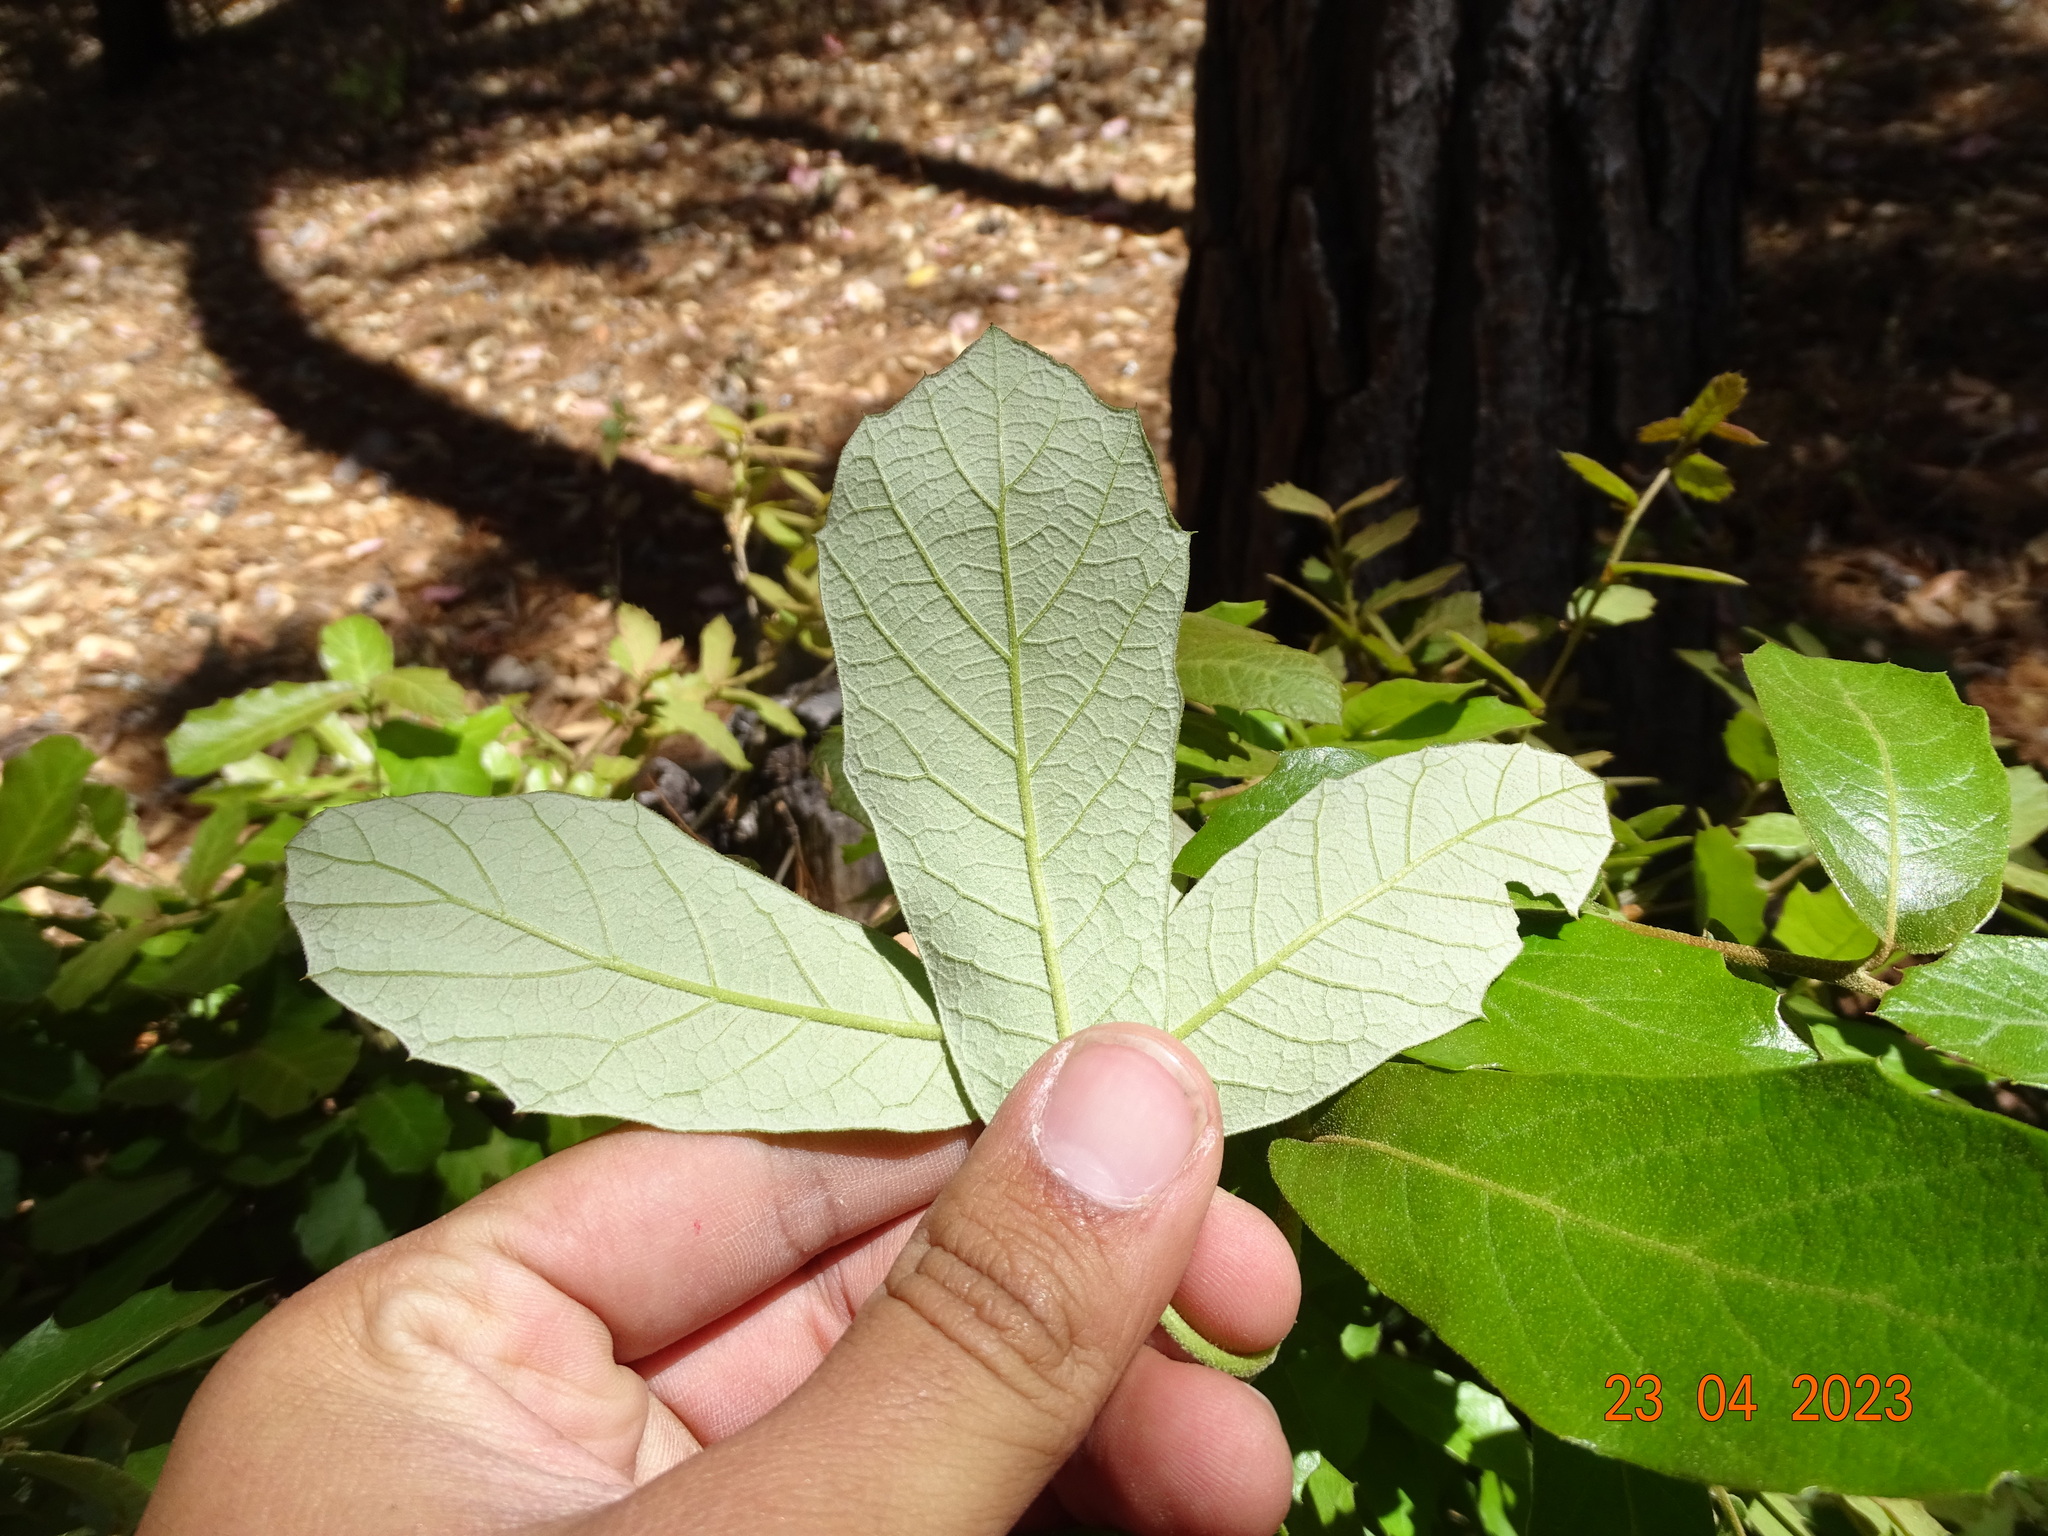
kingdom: Plantae
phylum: Tracheophyta
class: Magnoliopsida
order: Fagales
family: Fagaceae
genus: Quercus
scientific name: Quercus calophylla
